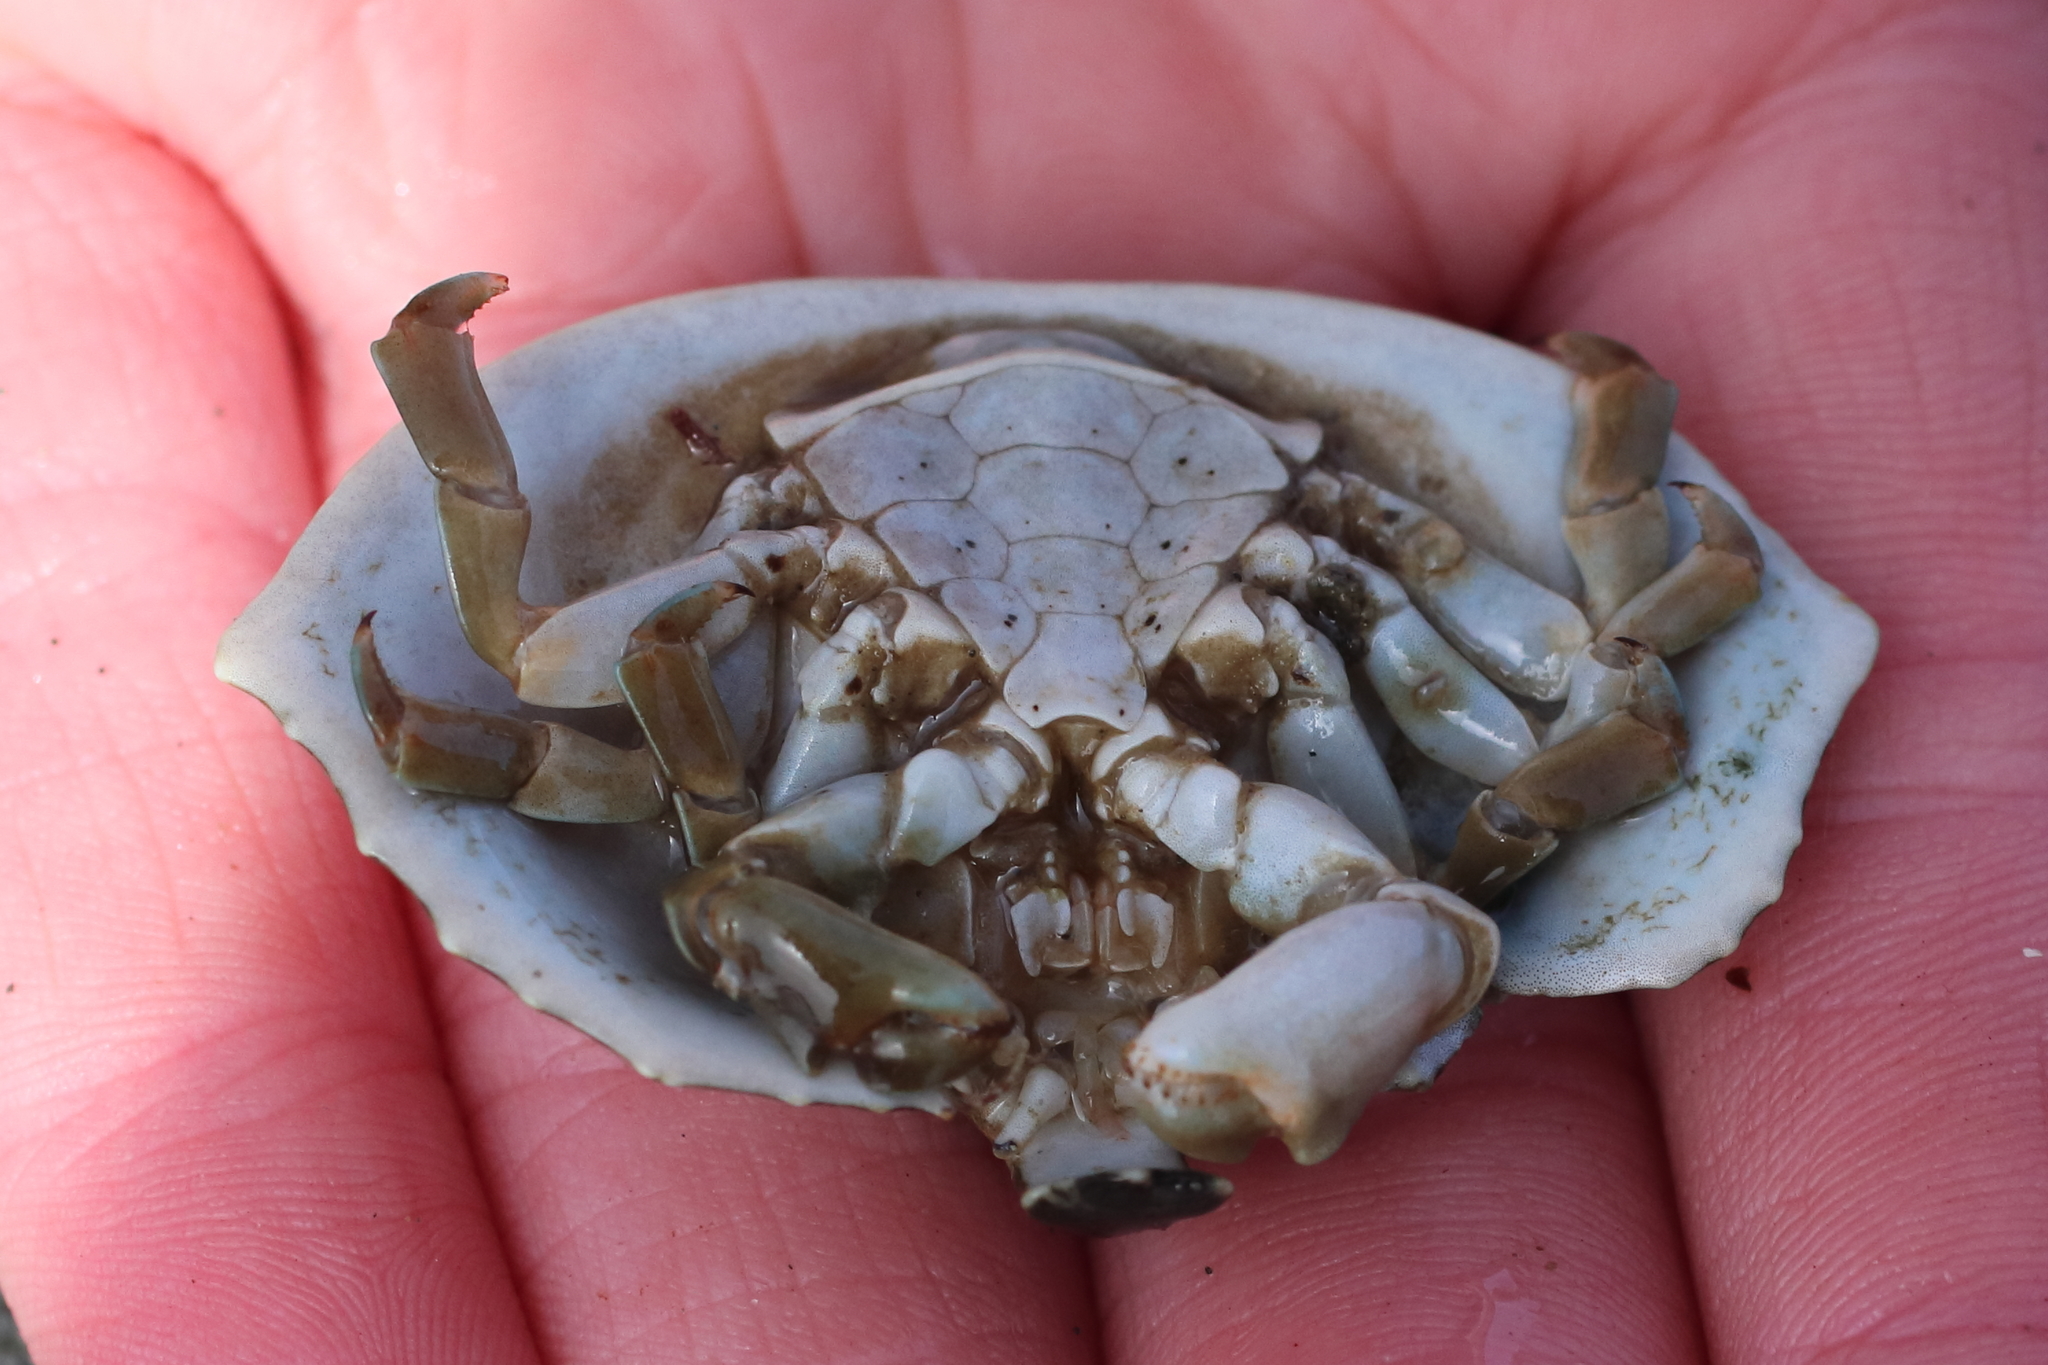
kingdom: Animalia
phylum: Arthropoda
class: Malacostraca
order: Decapoda
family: Lithodidae
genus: Cryptolithodes
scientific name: Cryptolithodes sitchensis
